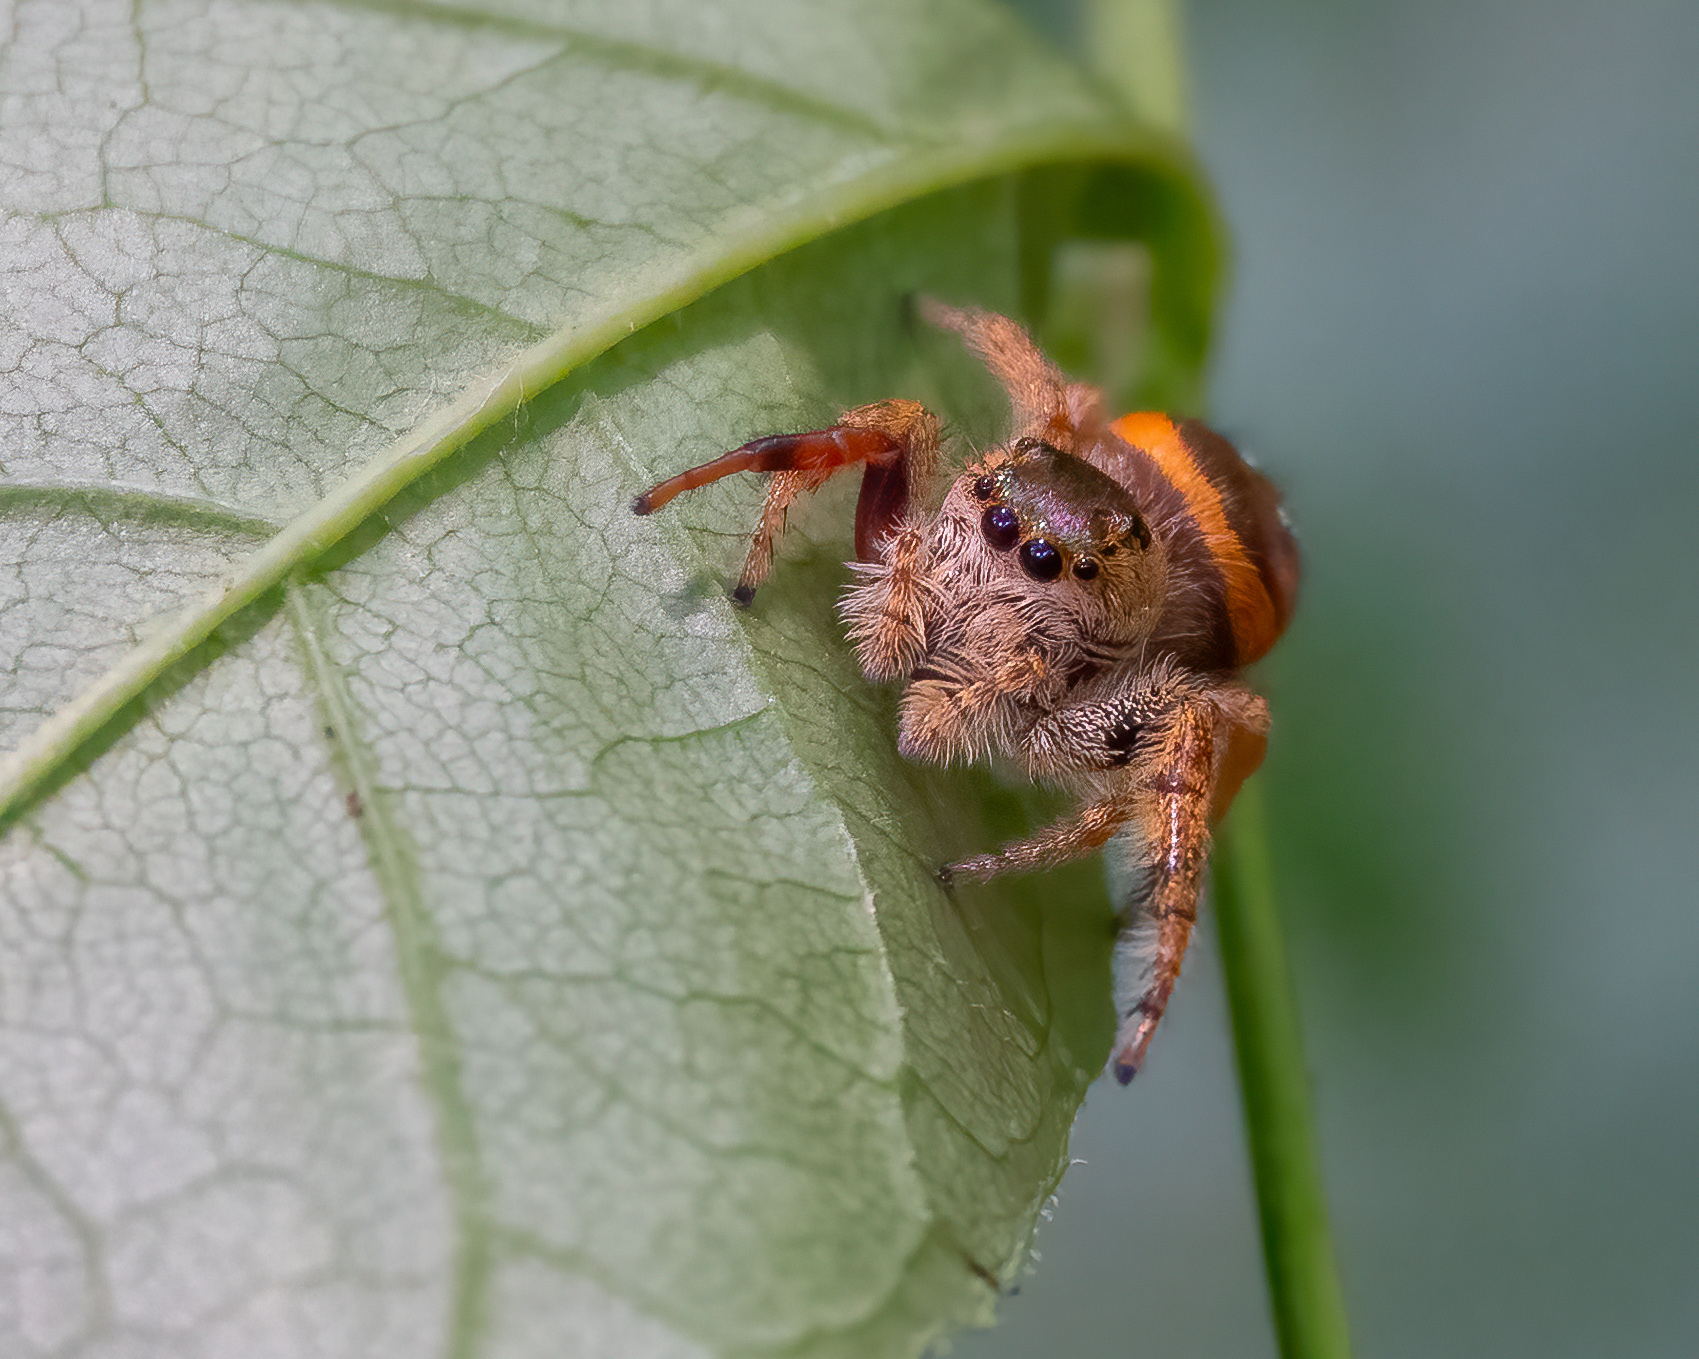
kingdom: Animalia
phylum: Arthropoda
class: Arachnida
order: Araneae
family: Salticidae
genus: Paraphidippus
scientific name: Paraphidippus aurantius
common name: Jumping spiders
